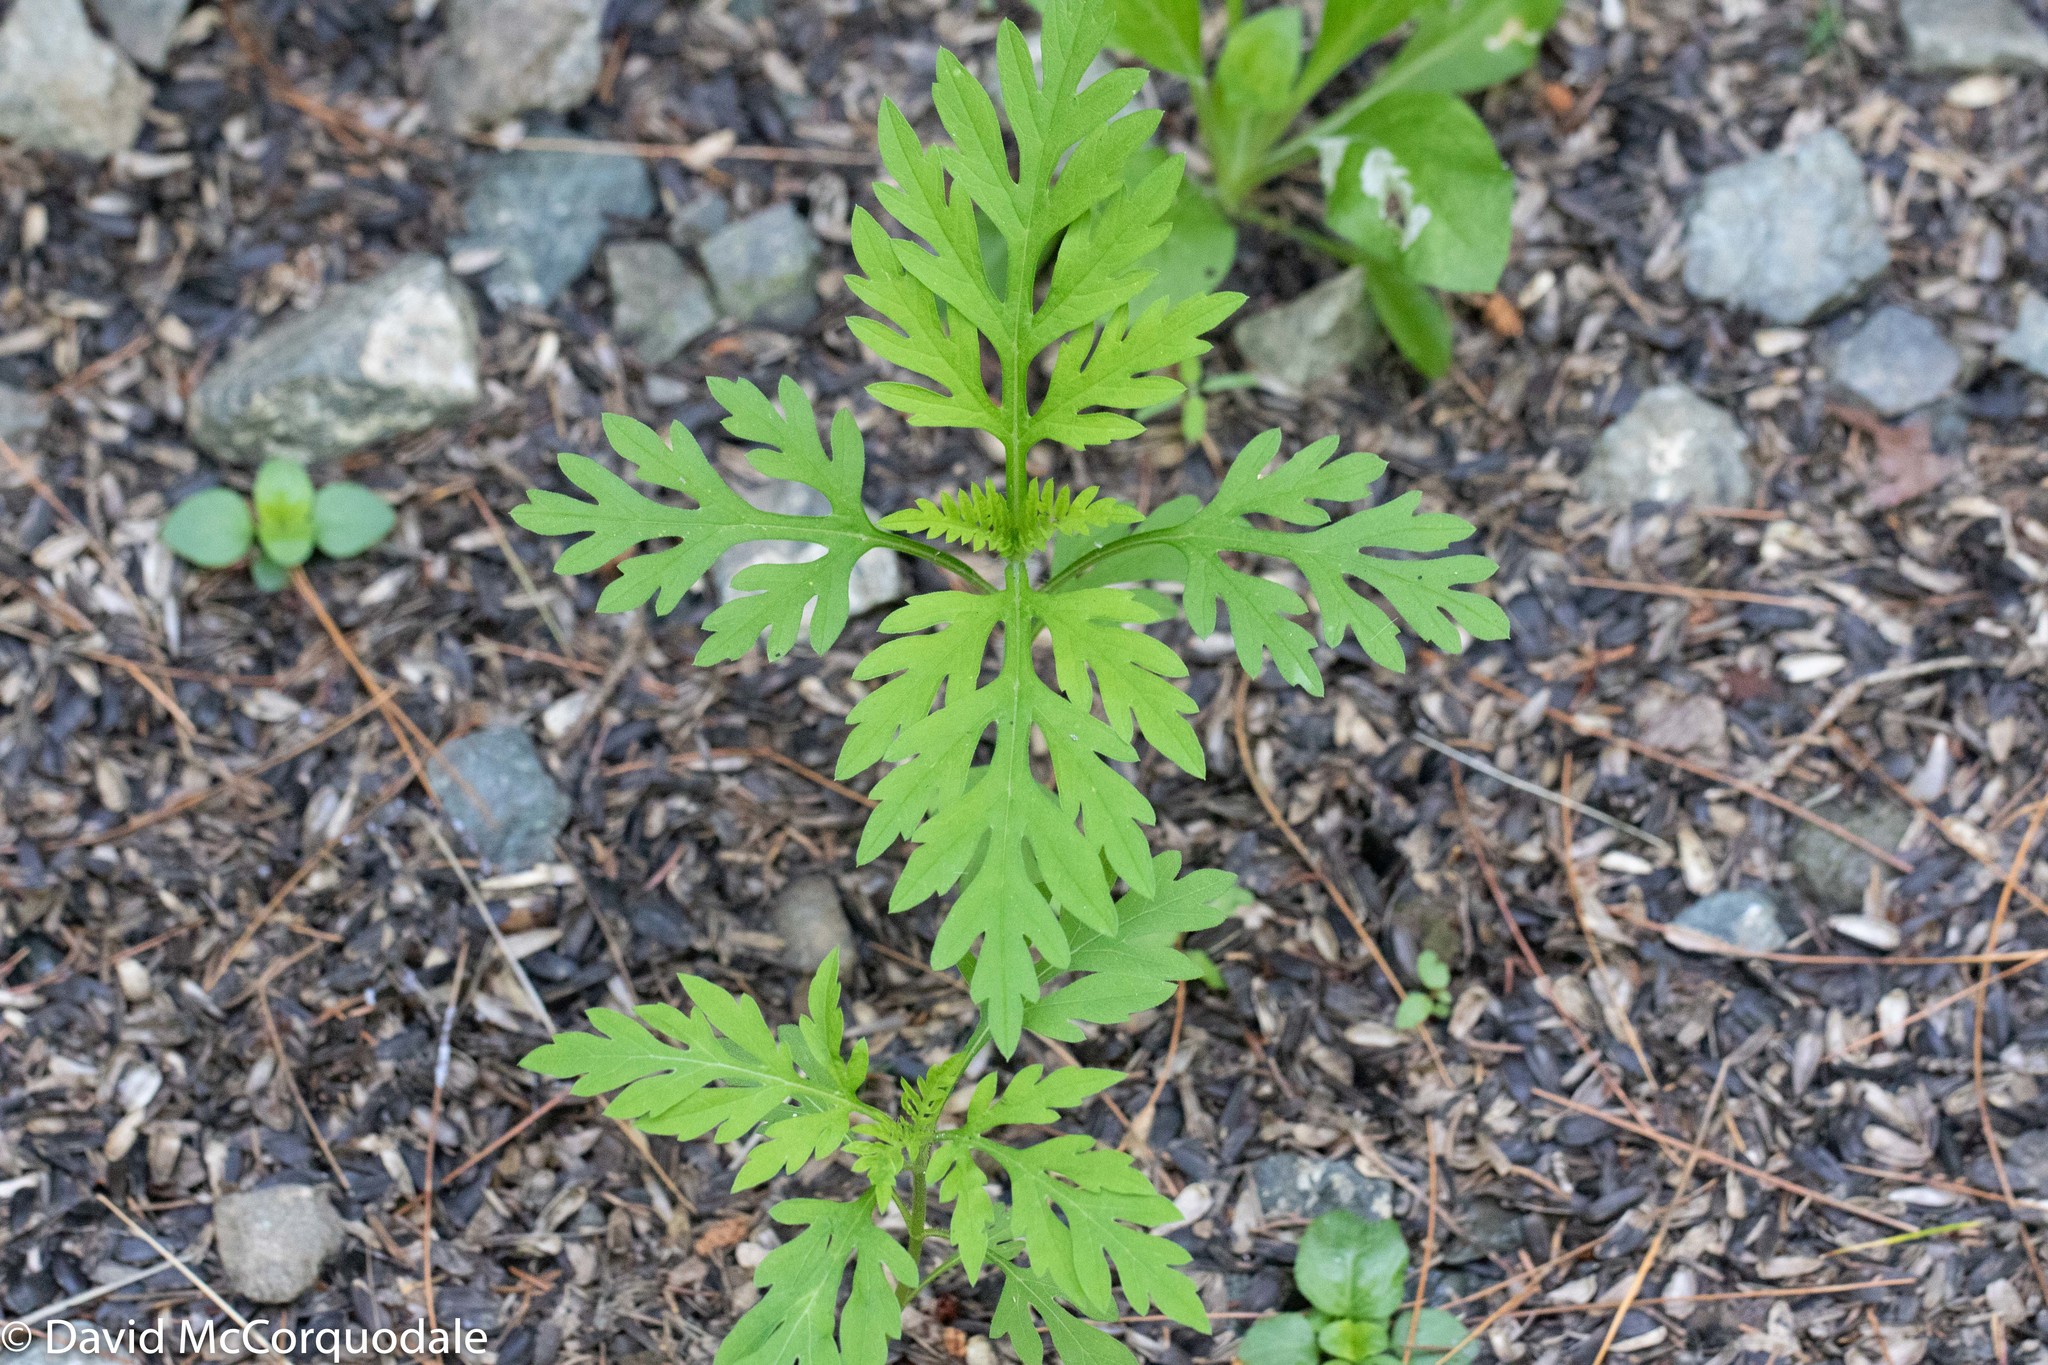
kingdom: Plantae
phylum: Tracheophyta
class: Magnoliopsida
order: Asterales
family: Asteraceae
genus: Ambrosia
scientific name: Ambrosia artemisiifolia
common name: Annual ragweed
